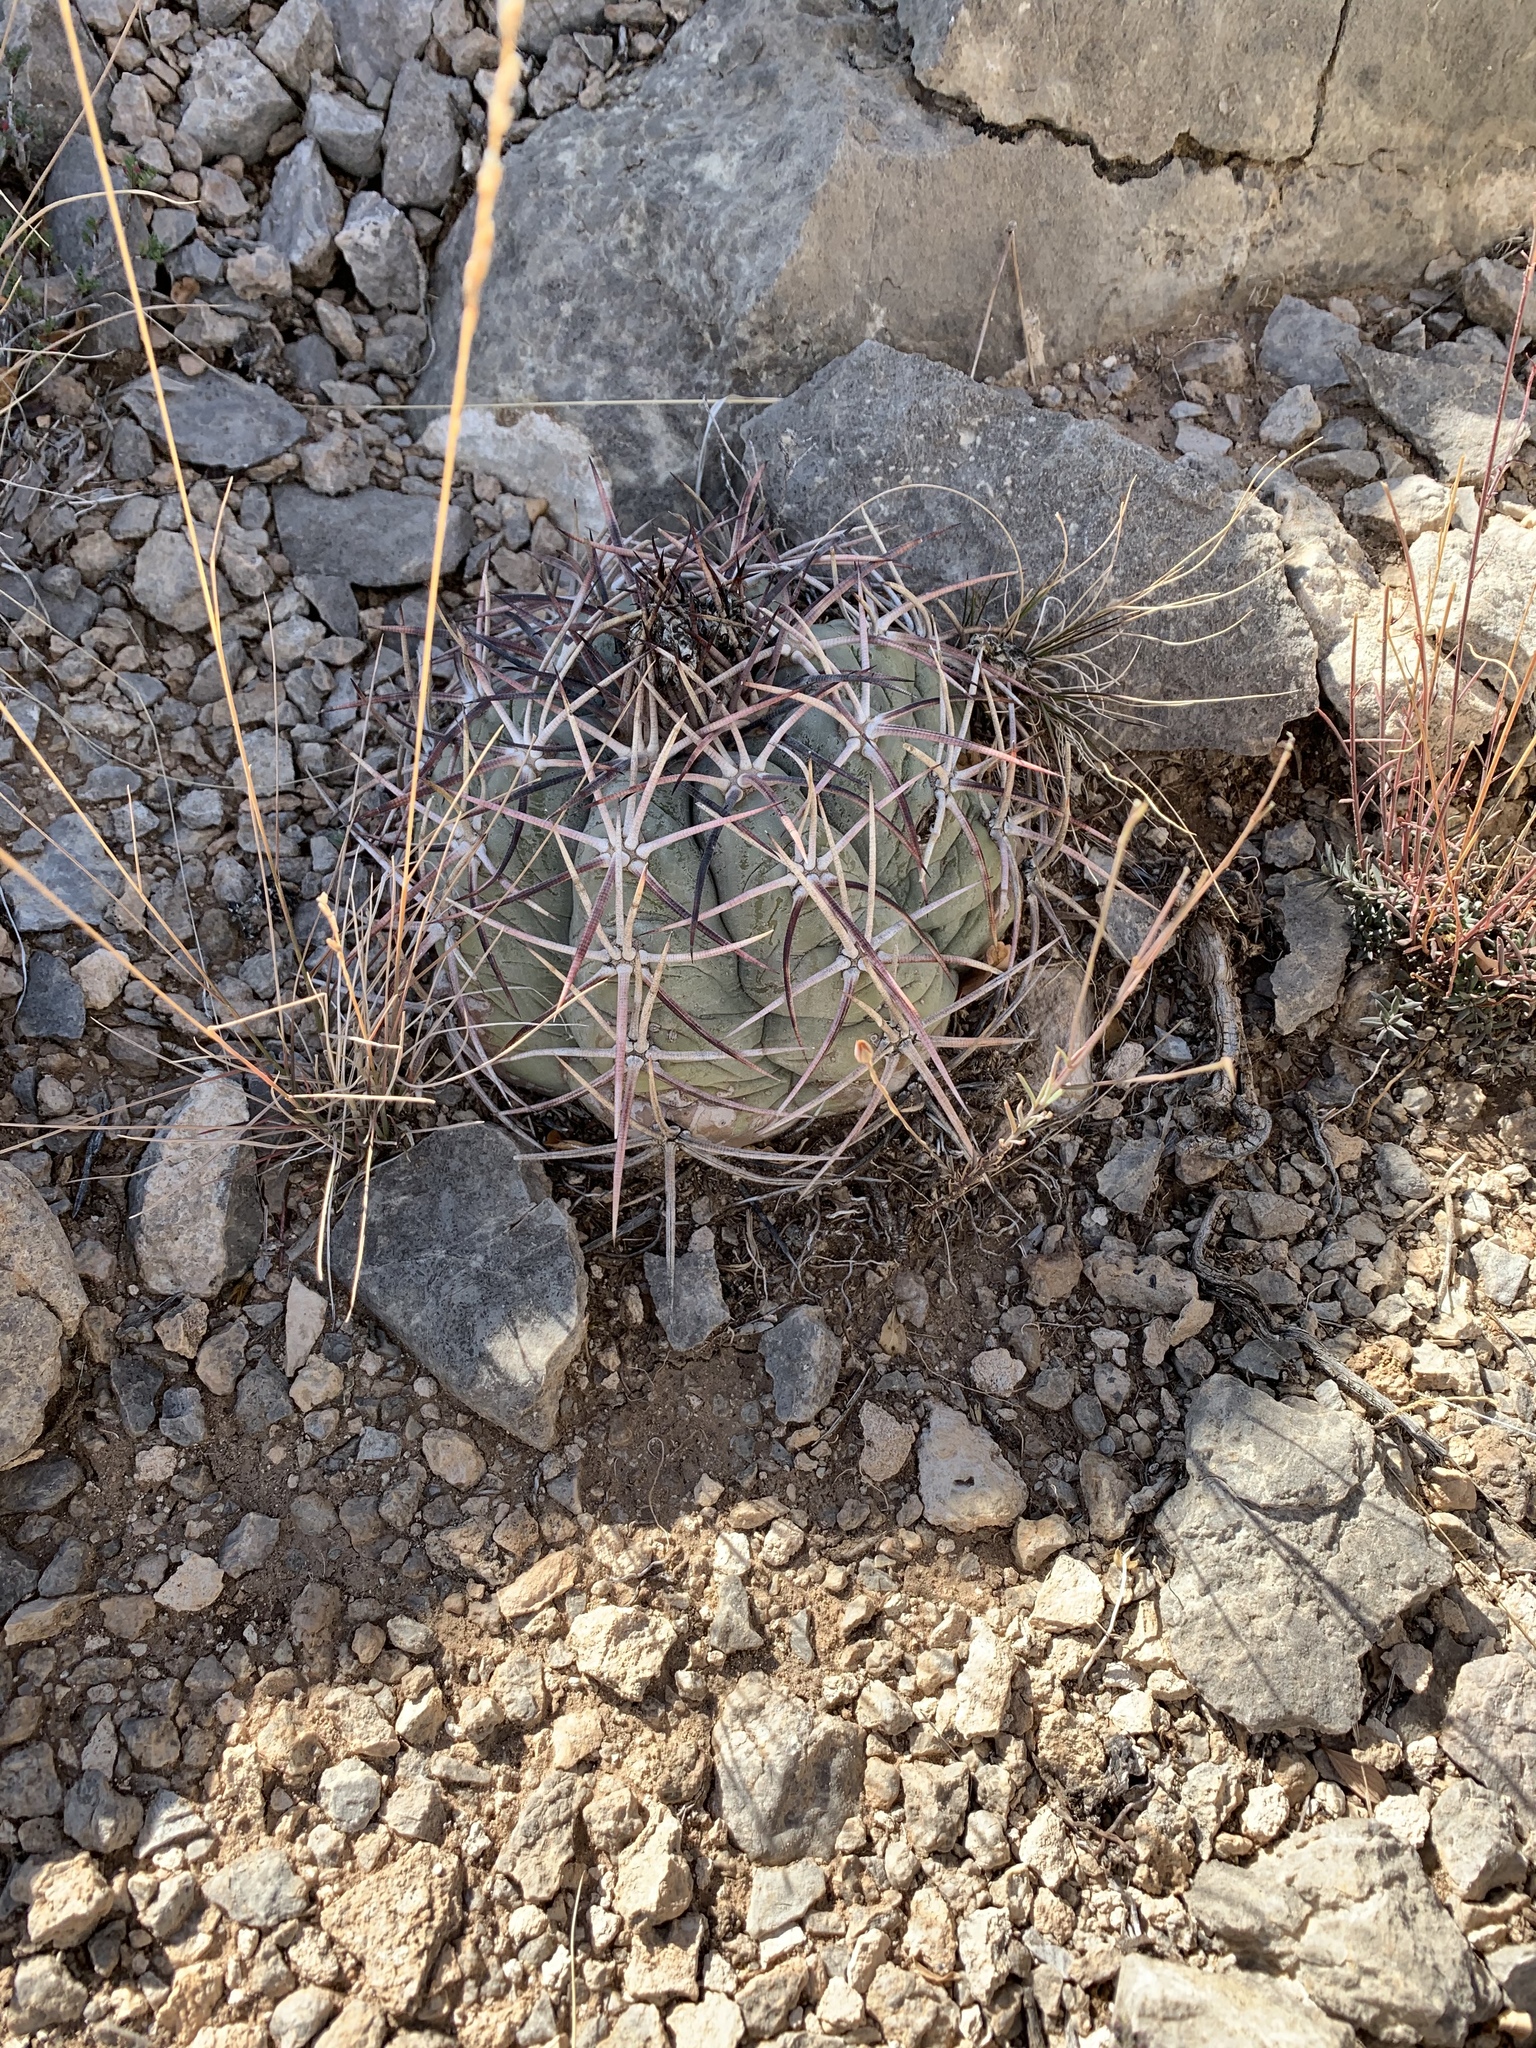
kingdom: Plantae
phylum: Tracheophyta
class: Magnoliopsida
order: Caryophyllales
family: Cactaceae
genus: Echinocactus
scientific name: Echinocactus horizonthalonius
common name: Devilshead
